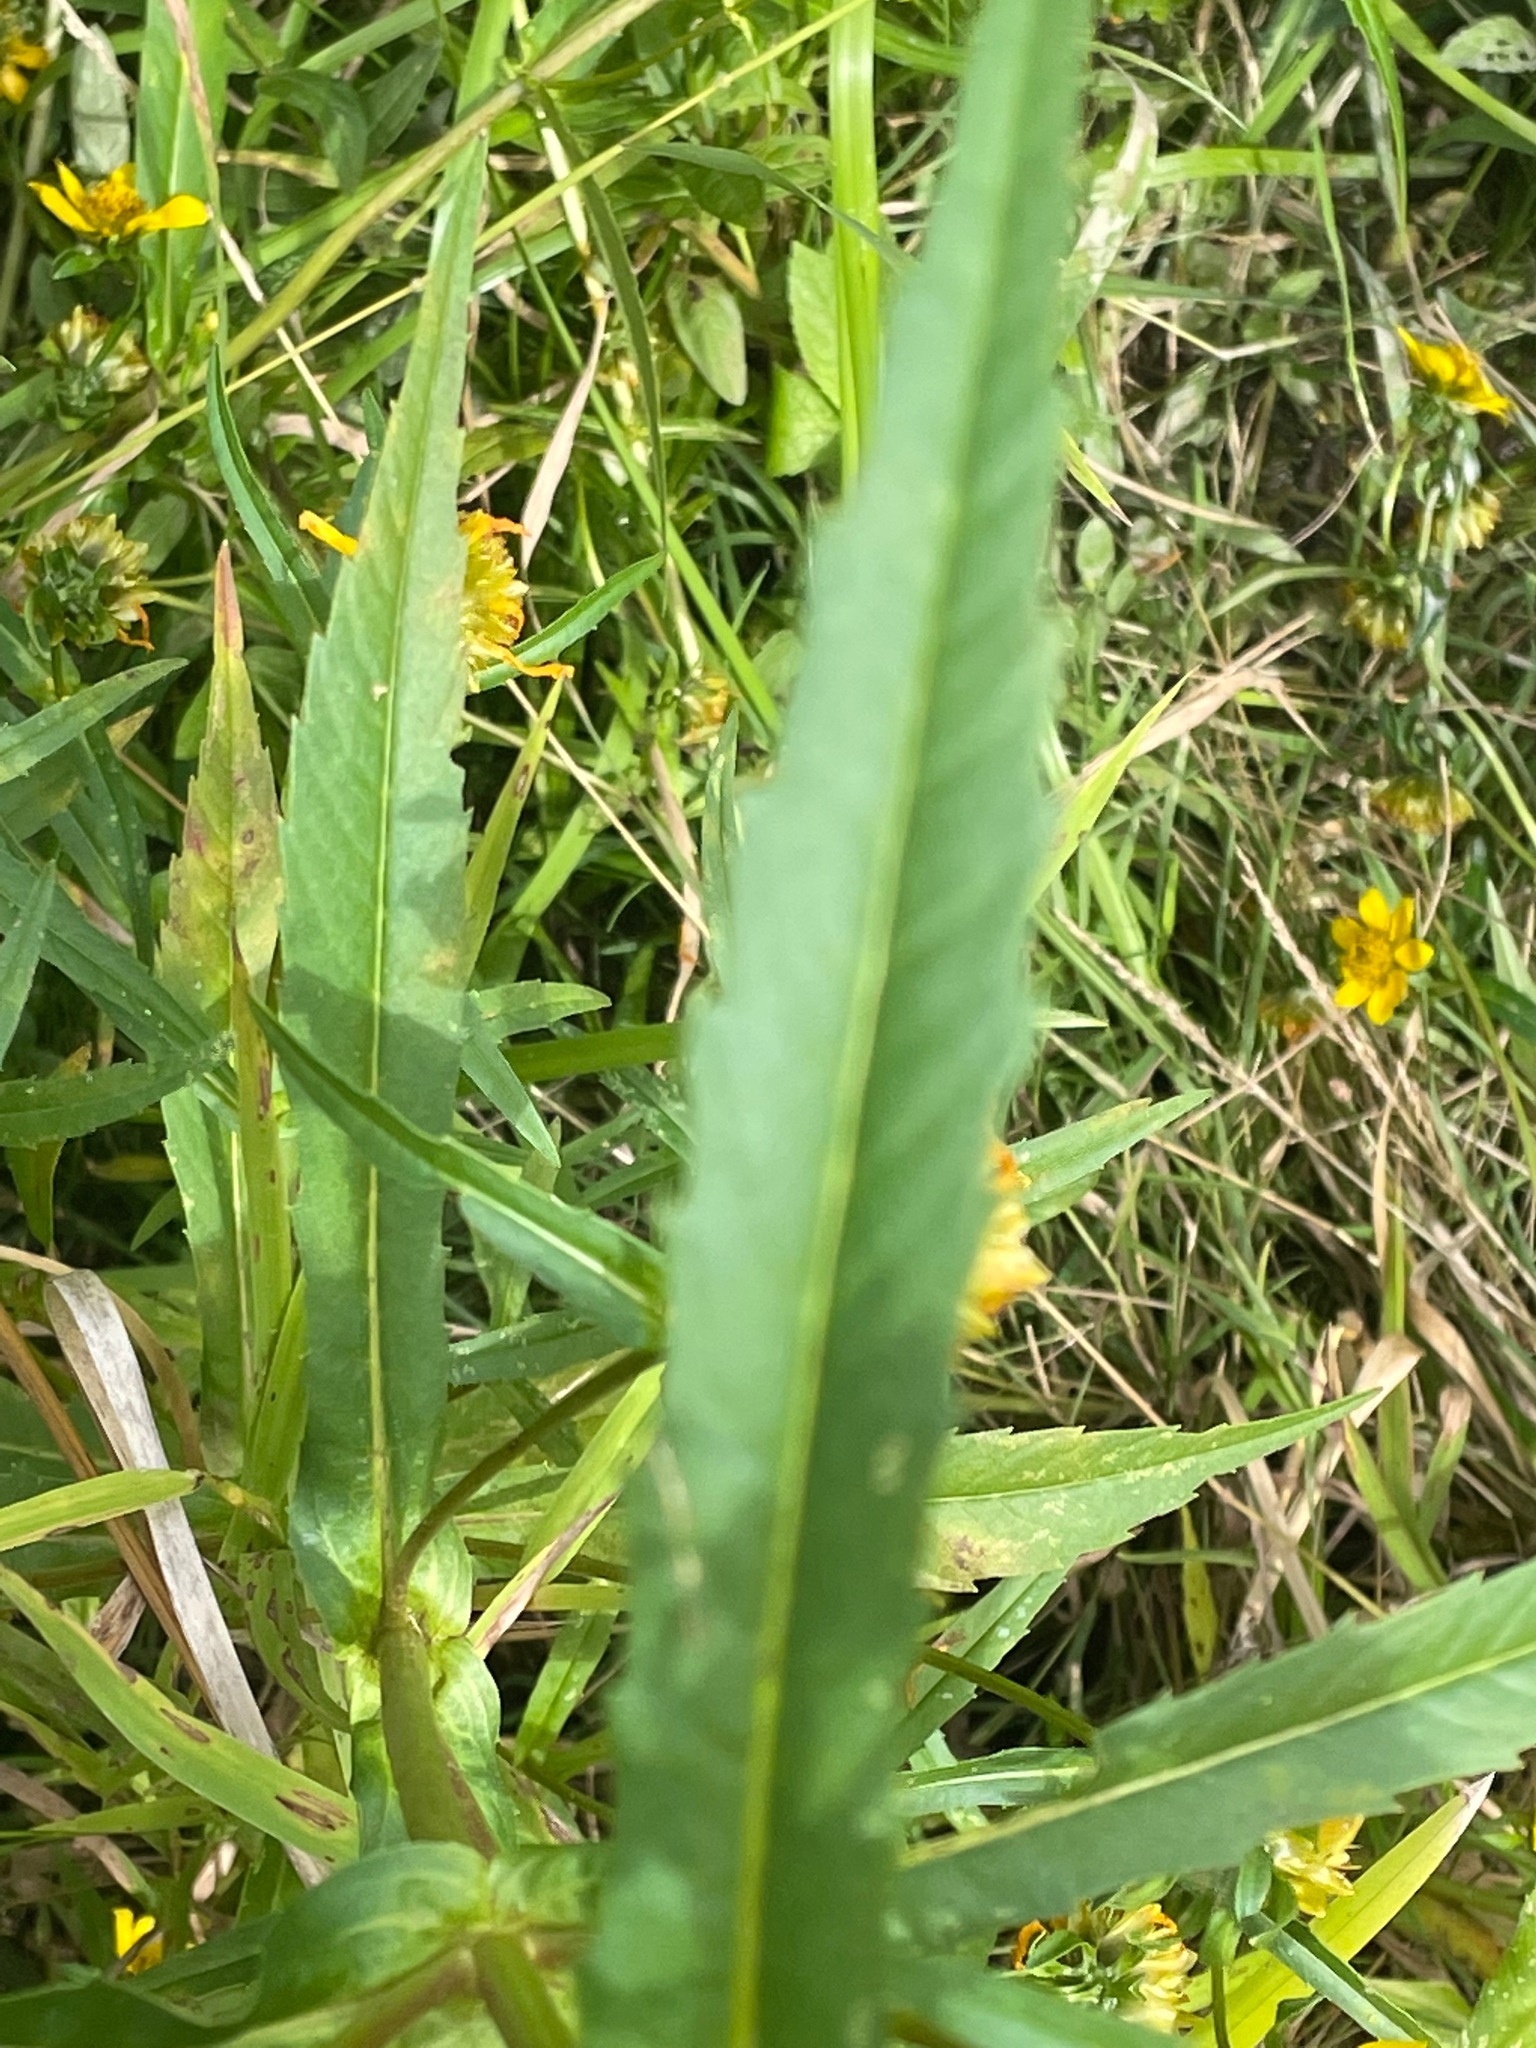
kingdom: Plantae
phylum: Tracheophyta
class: Magnoliopsida
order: Asterales
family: Asteraceae
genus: Bidens
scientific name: Bidens cernua
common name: Nodding bur-marigold
